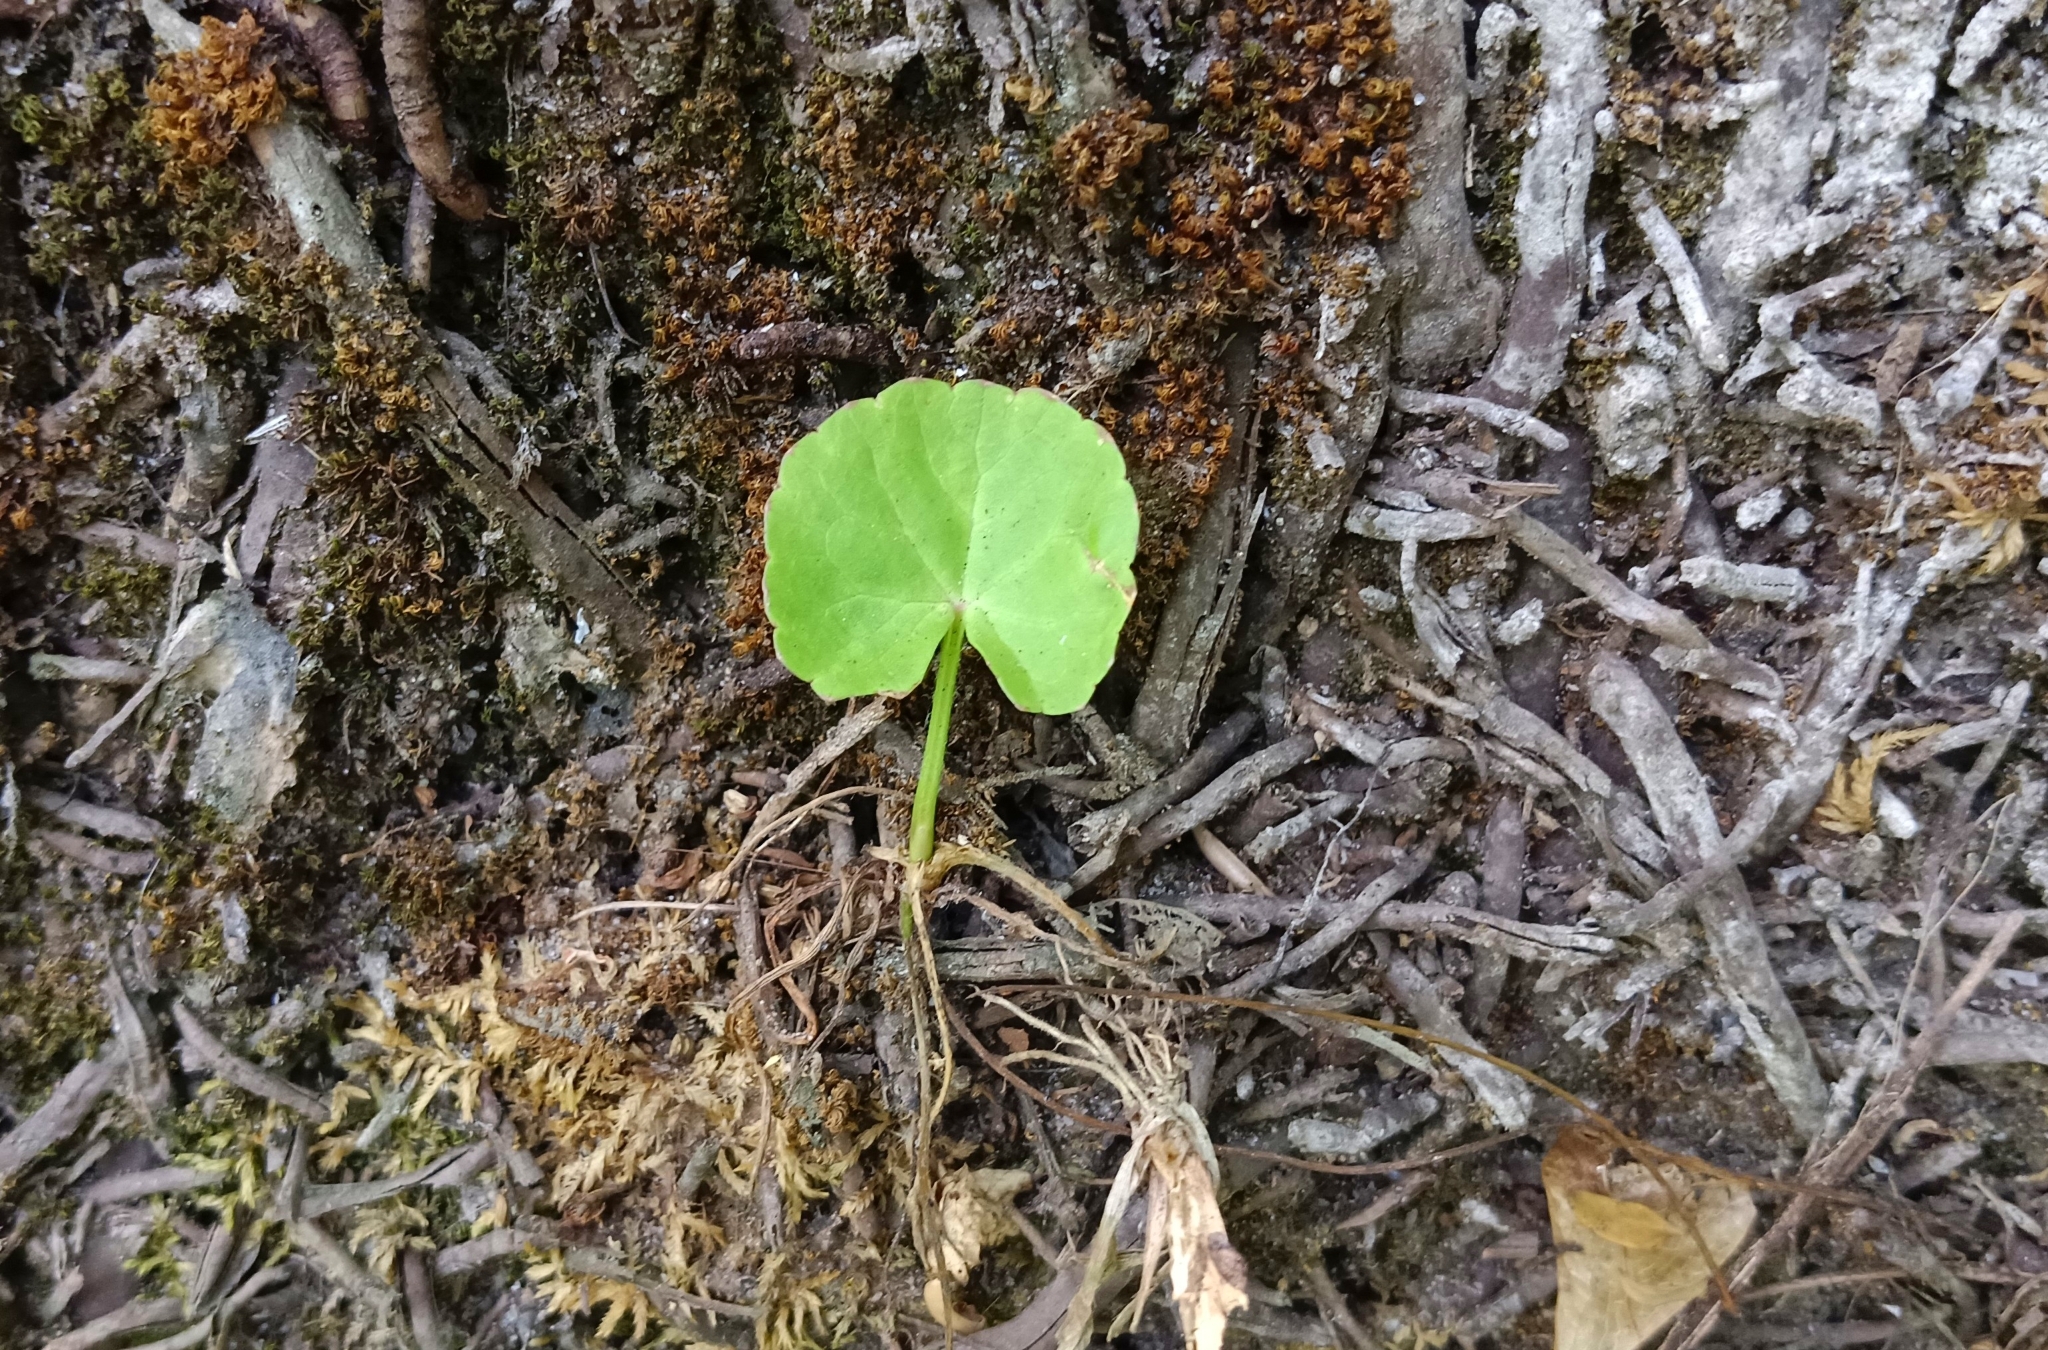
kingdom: Plantae
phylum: Tracheophyta
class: Magnoliopsida
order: Apiales
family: Apiaceae
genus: Centella
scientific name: Centella asiatica
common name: Spadeleaf
